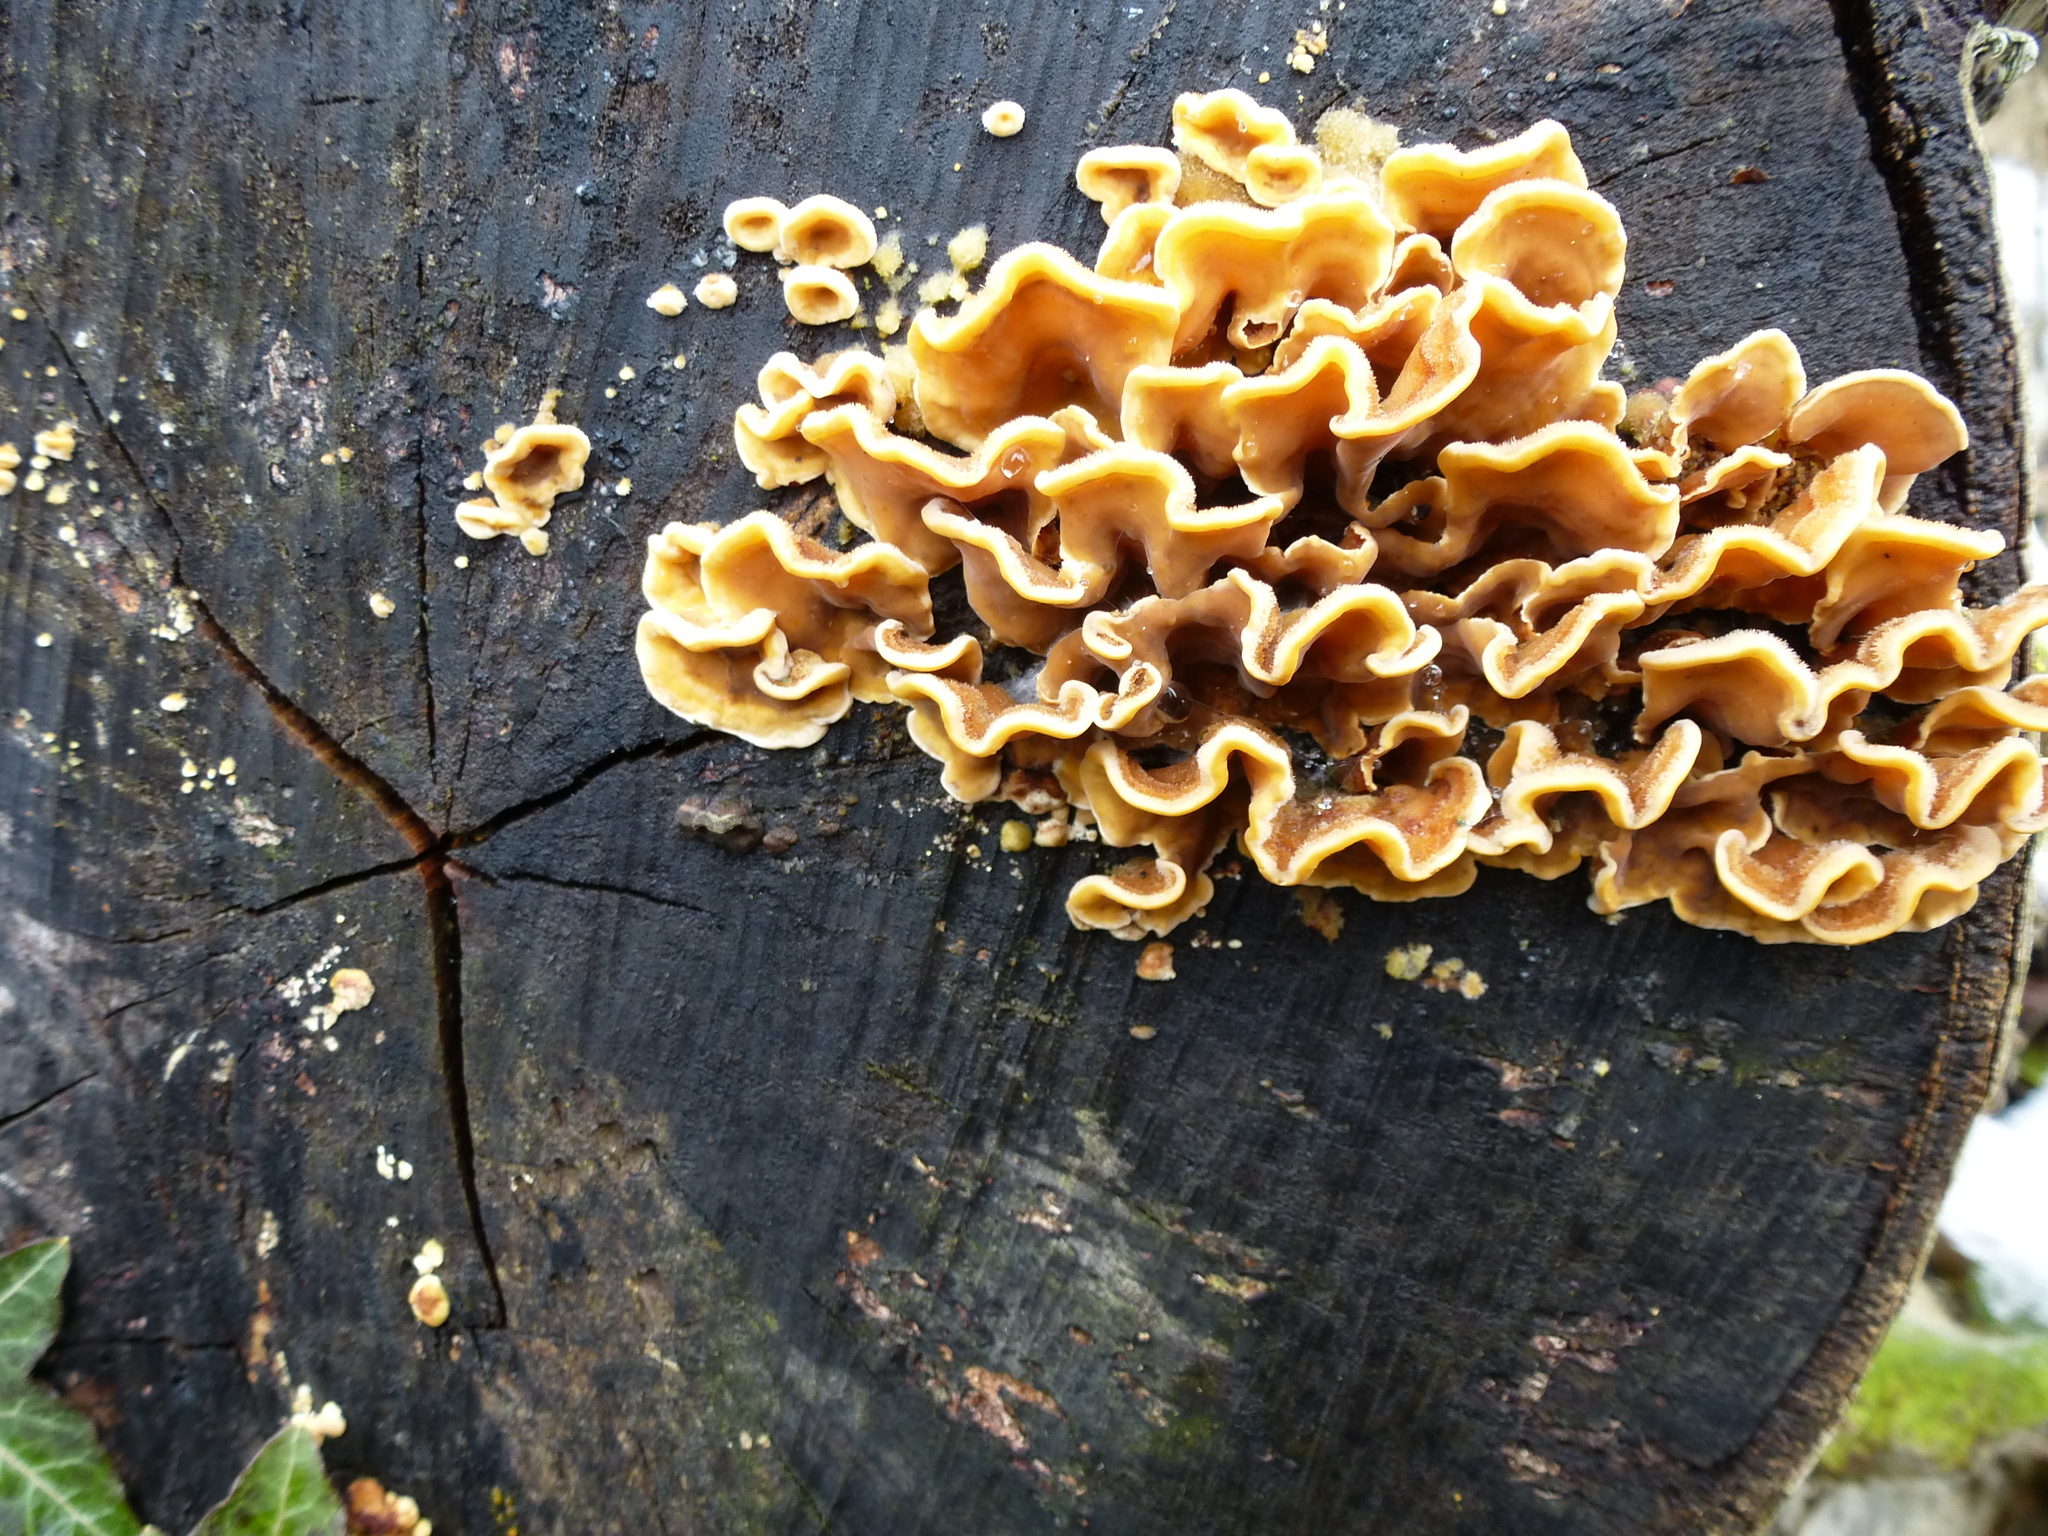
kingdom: Fungi
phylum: Basidiomycota
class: Agaricomycetes
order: Russulales
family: Stereaceae
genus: Stereum
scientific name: Stereum hirsutum
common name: Hairy curtain crust
